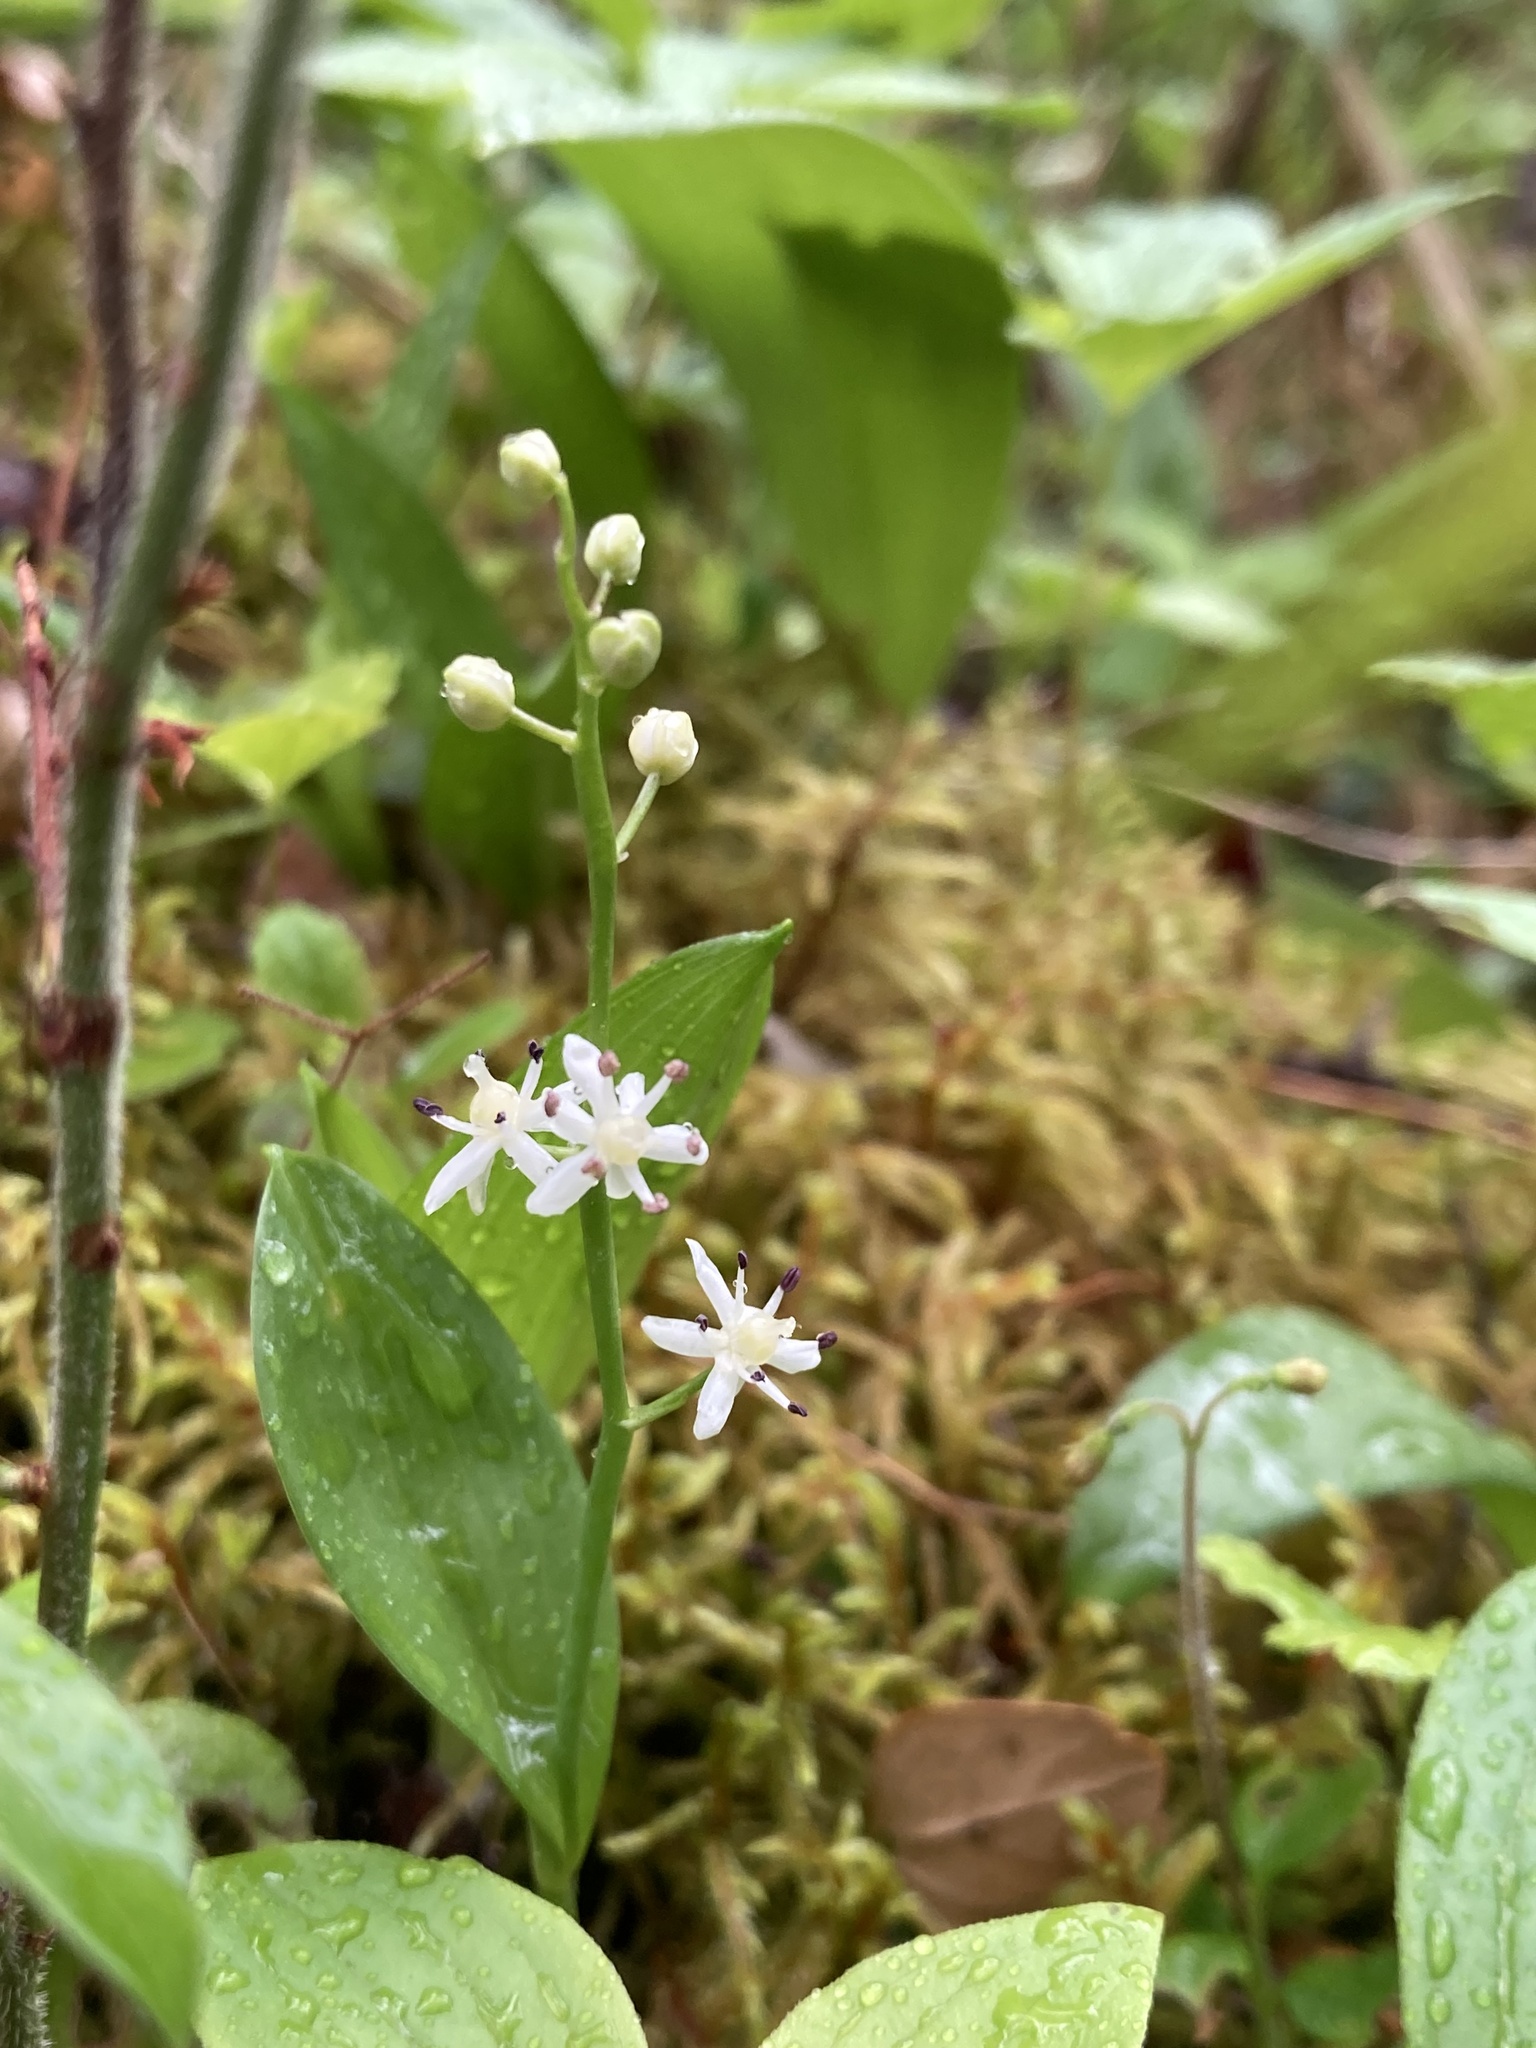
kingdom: Plantae
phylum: Tracheophyta
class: Liliopsida
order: Asparagales
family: Asparagaceae
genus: Maianthemum
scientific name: Maianthemum trifolium
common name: Swamp false solomon's seal
